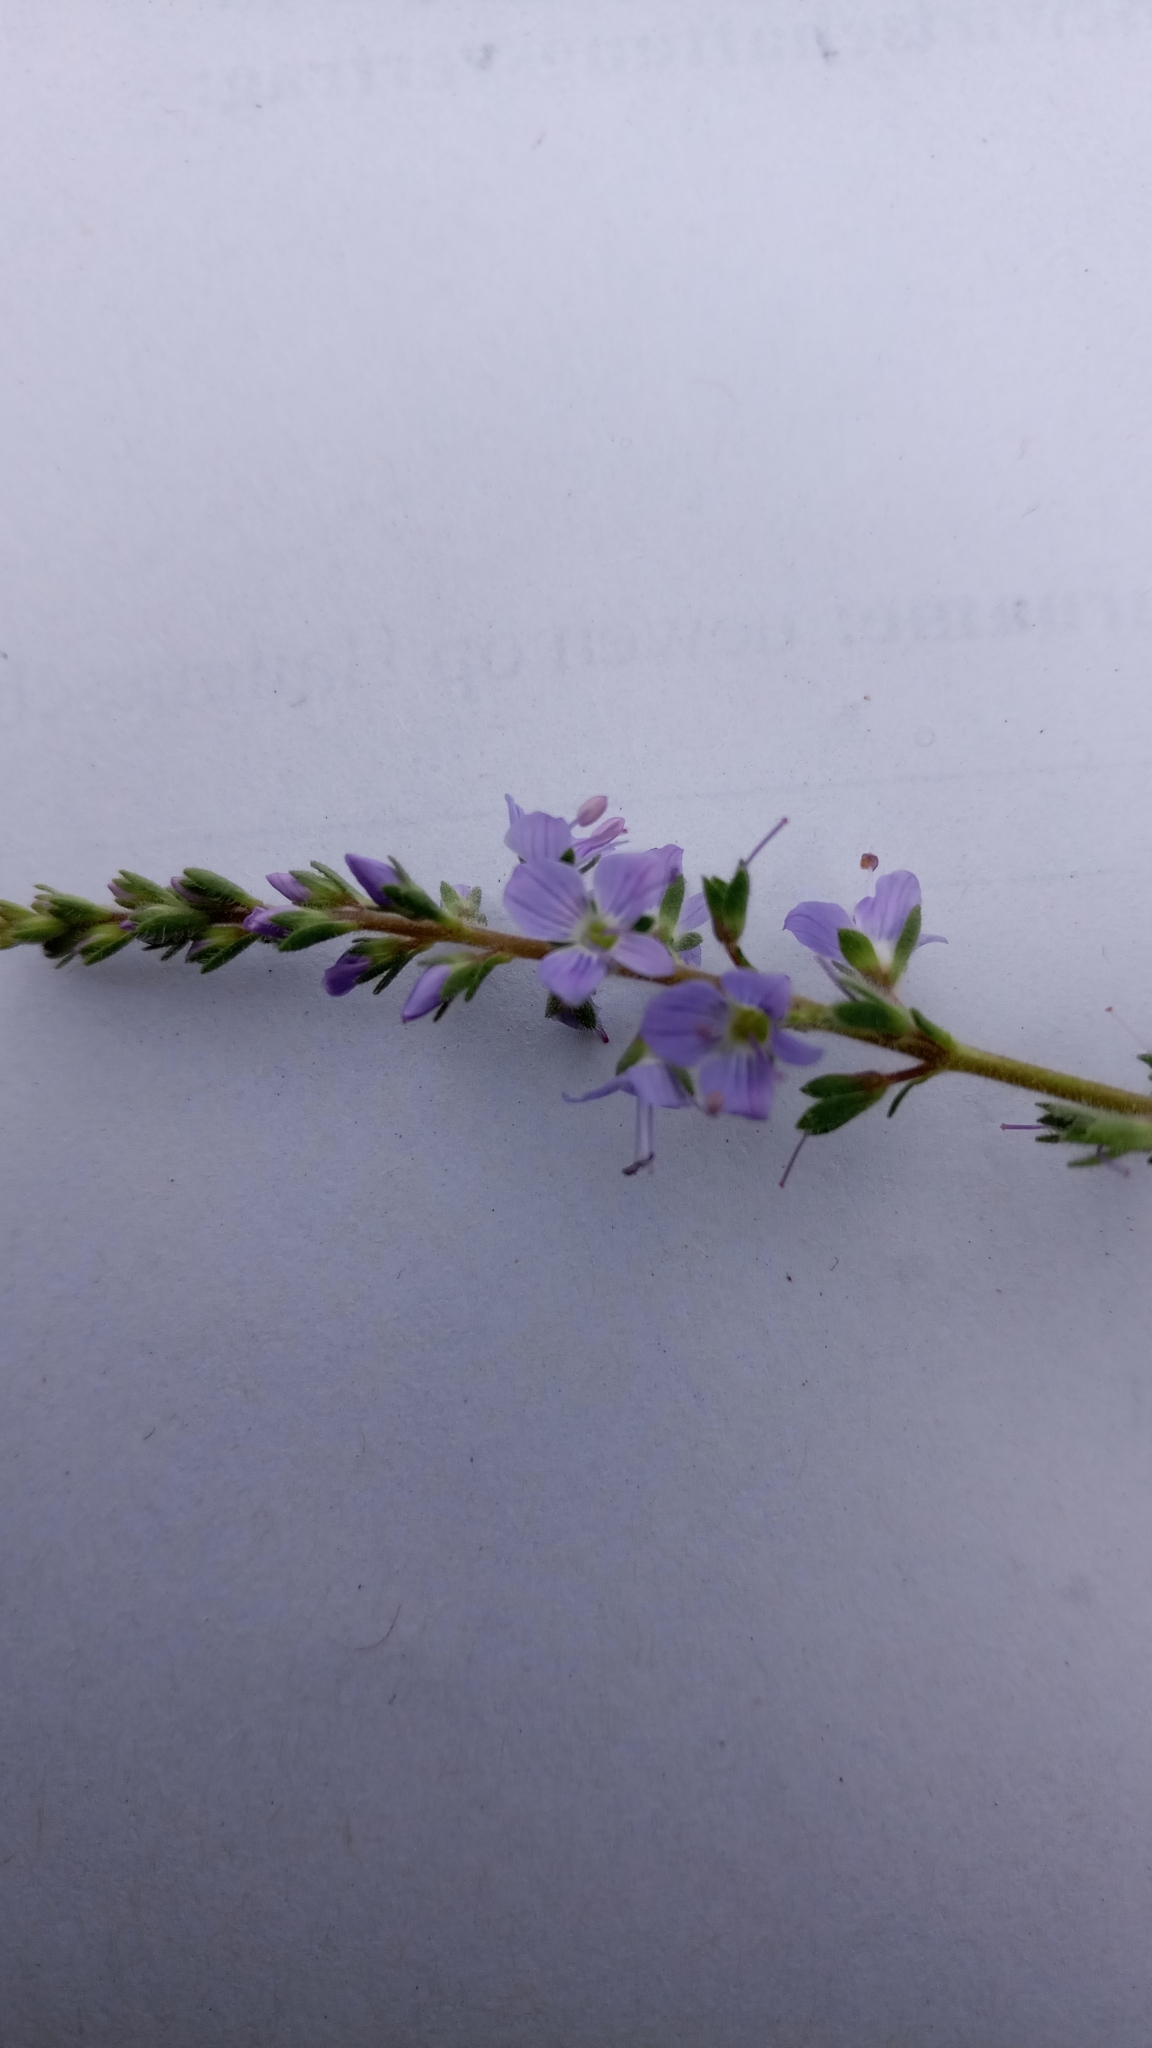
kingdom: Plantae
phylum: Tracheophyta
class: Magnoliopsida
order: Lamiales
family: Plantaginaceae
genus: Veronica
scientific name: Veronica officinalis
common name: Common speedwell
